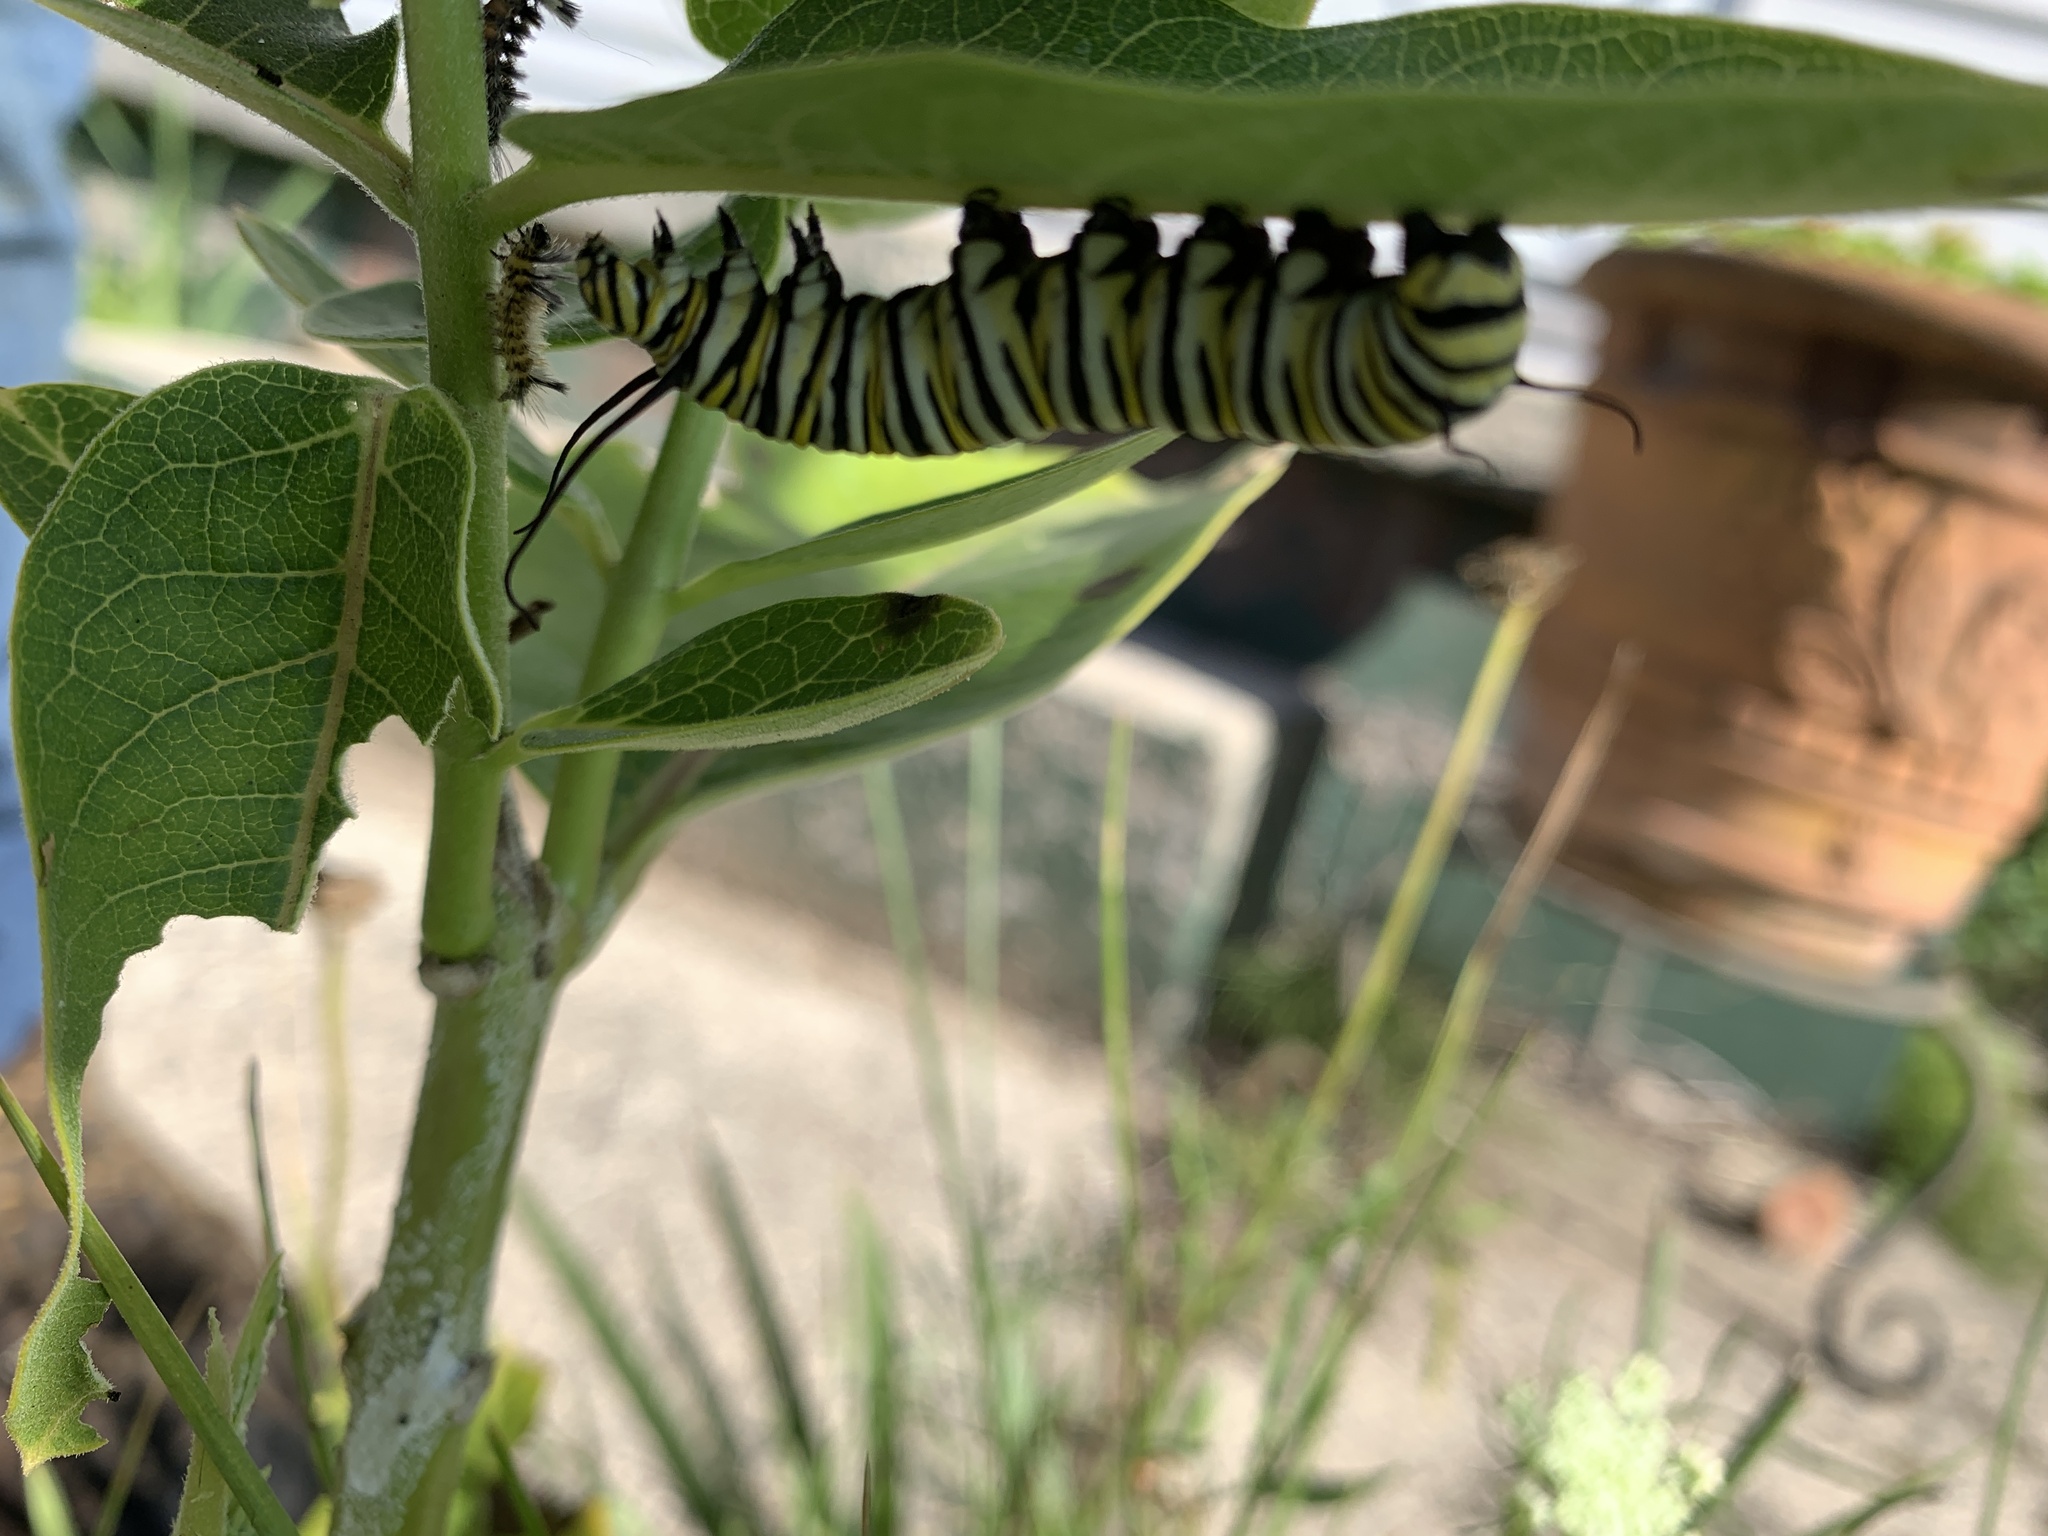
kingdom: Animalia
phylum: Arthropoda
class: Insecta
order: Lepidoptera
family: Nymphalidae
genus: Danaus
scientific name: Danaus plexippus
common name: Monarch
